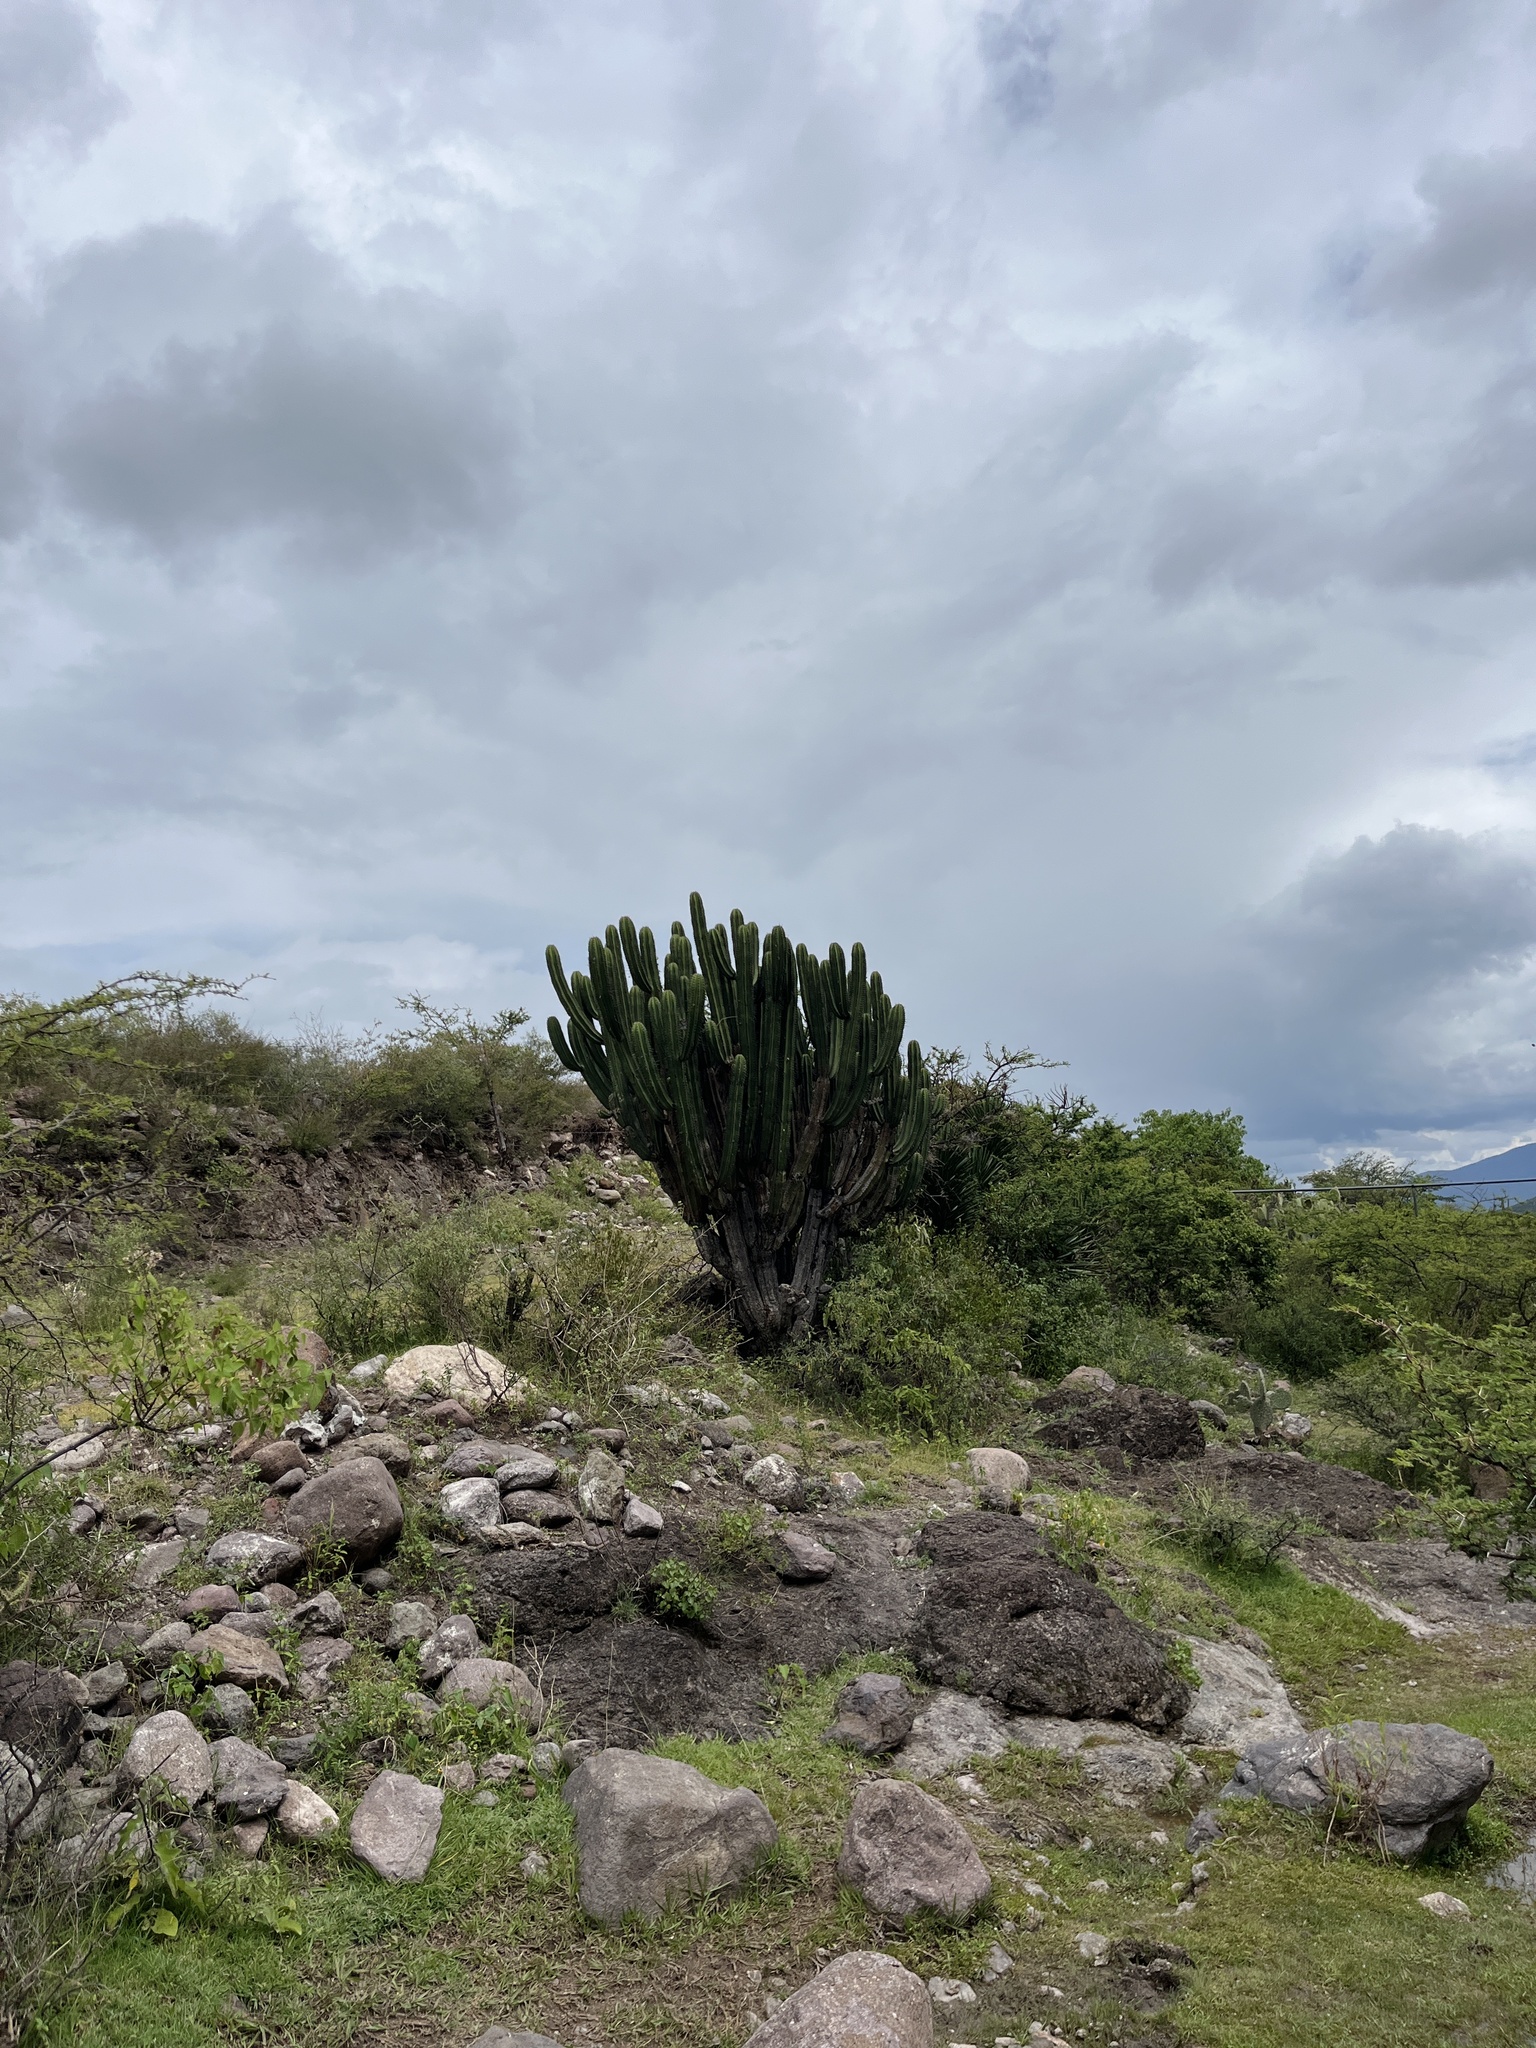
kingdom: Plantae
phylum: Tracheophyta
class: Magnoliopsida
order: Caryophyllales
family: Cactaceae
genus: Myrtillocactus
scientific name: Myrtillocactus schenckii
